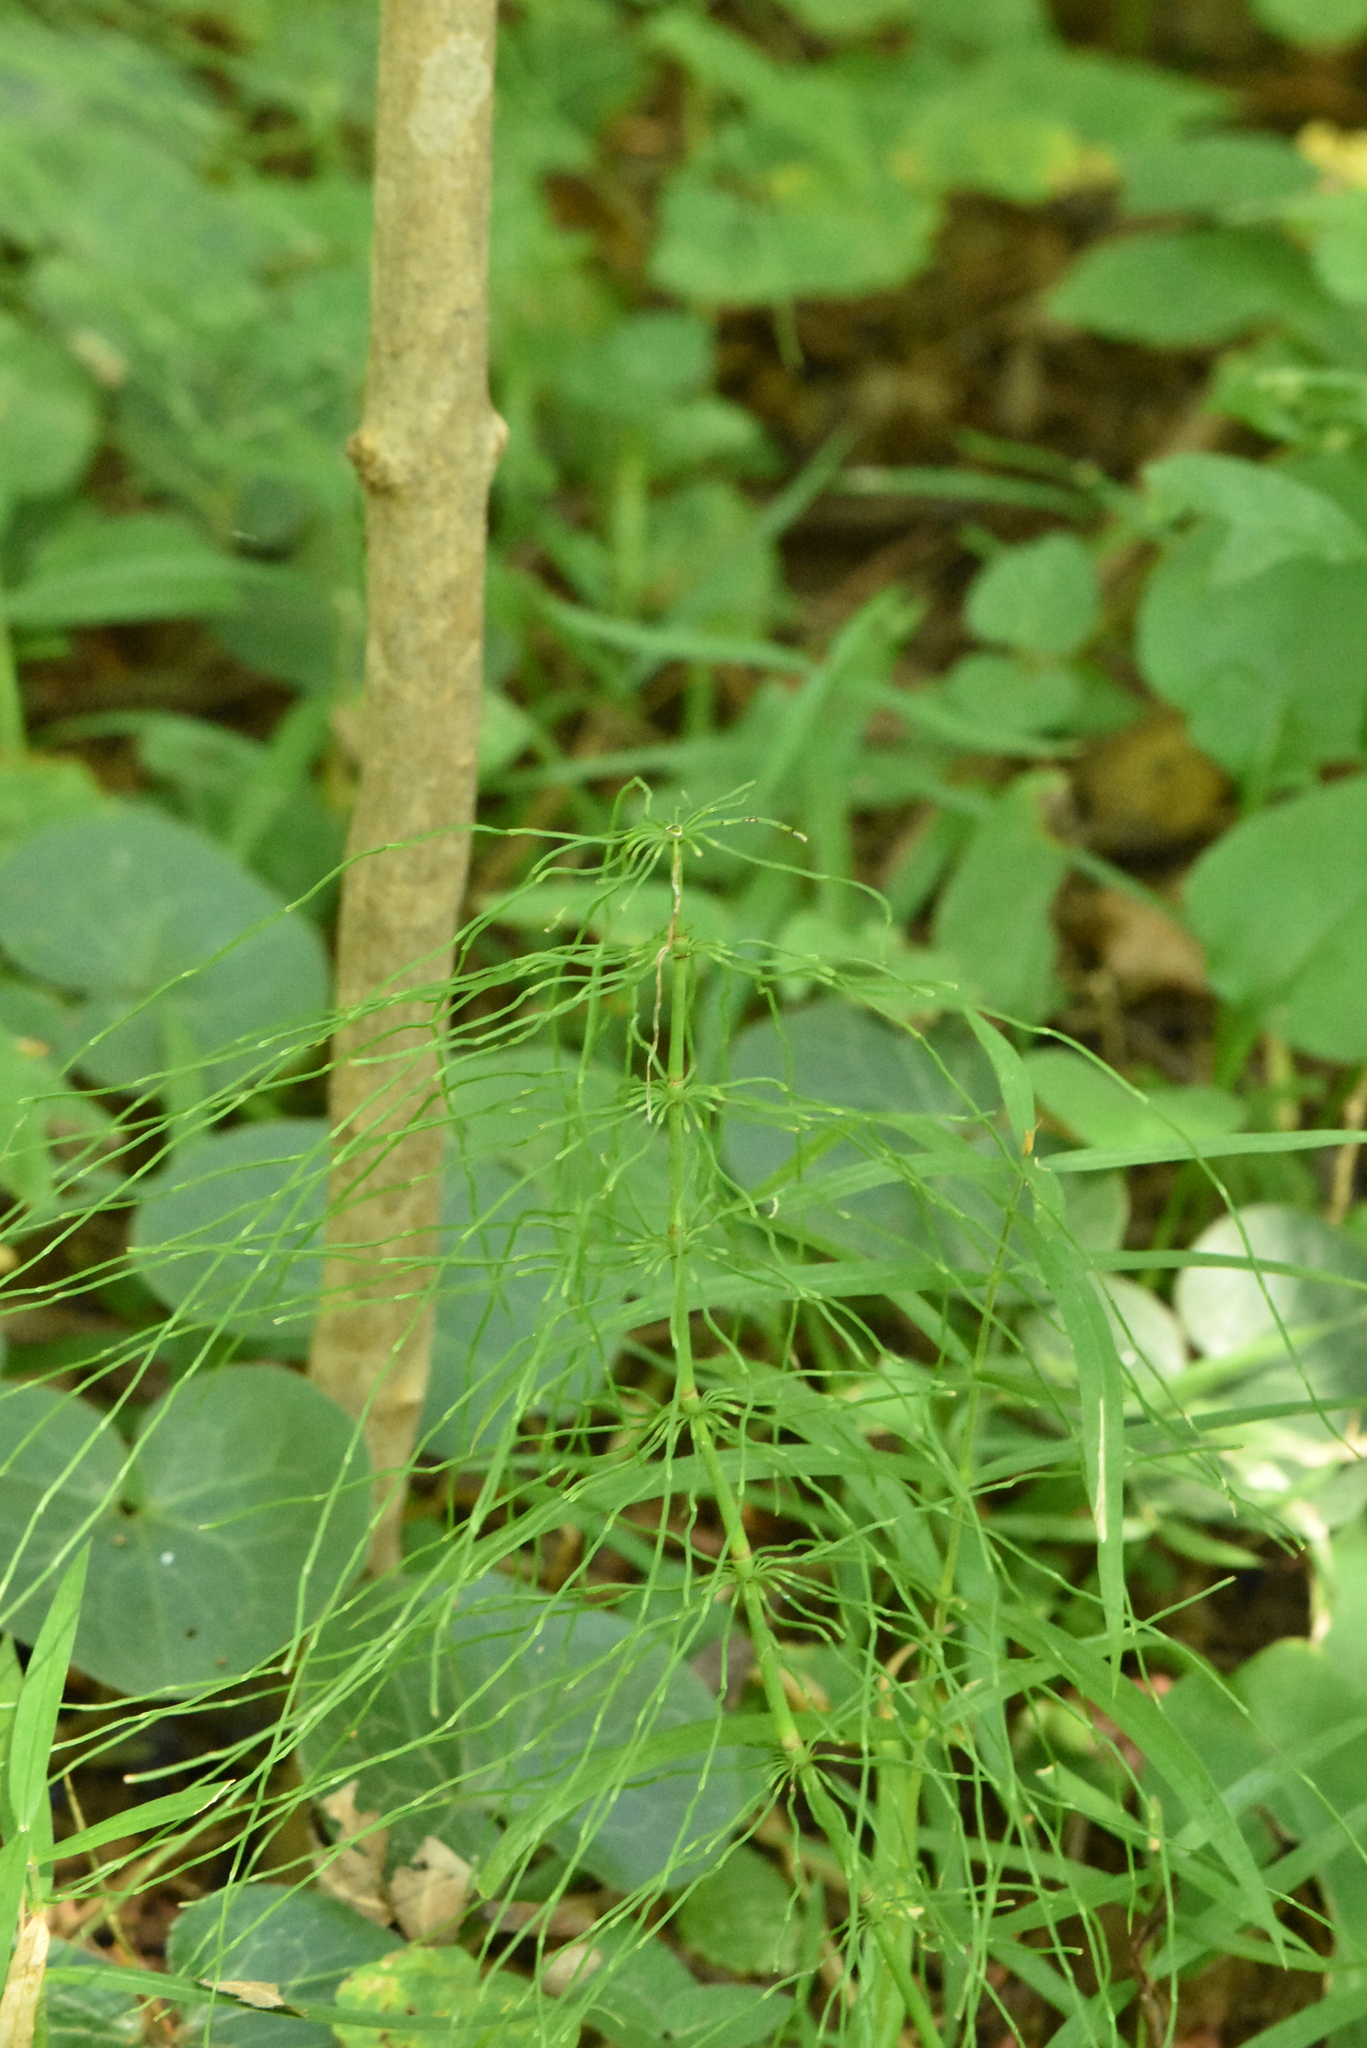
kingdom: Plantae
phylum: Tracheophyta
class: Polypodiopsida
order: Equisetales
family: Equisetaceae
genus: Equisetum
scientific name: Equisetum pratense
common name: Meadow horsetail
